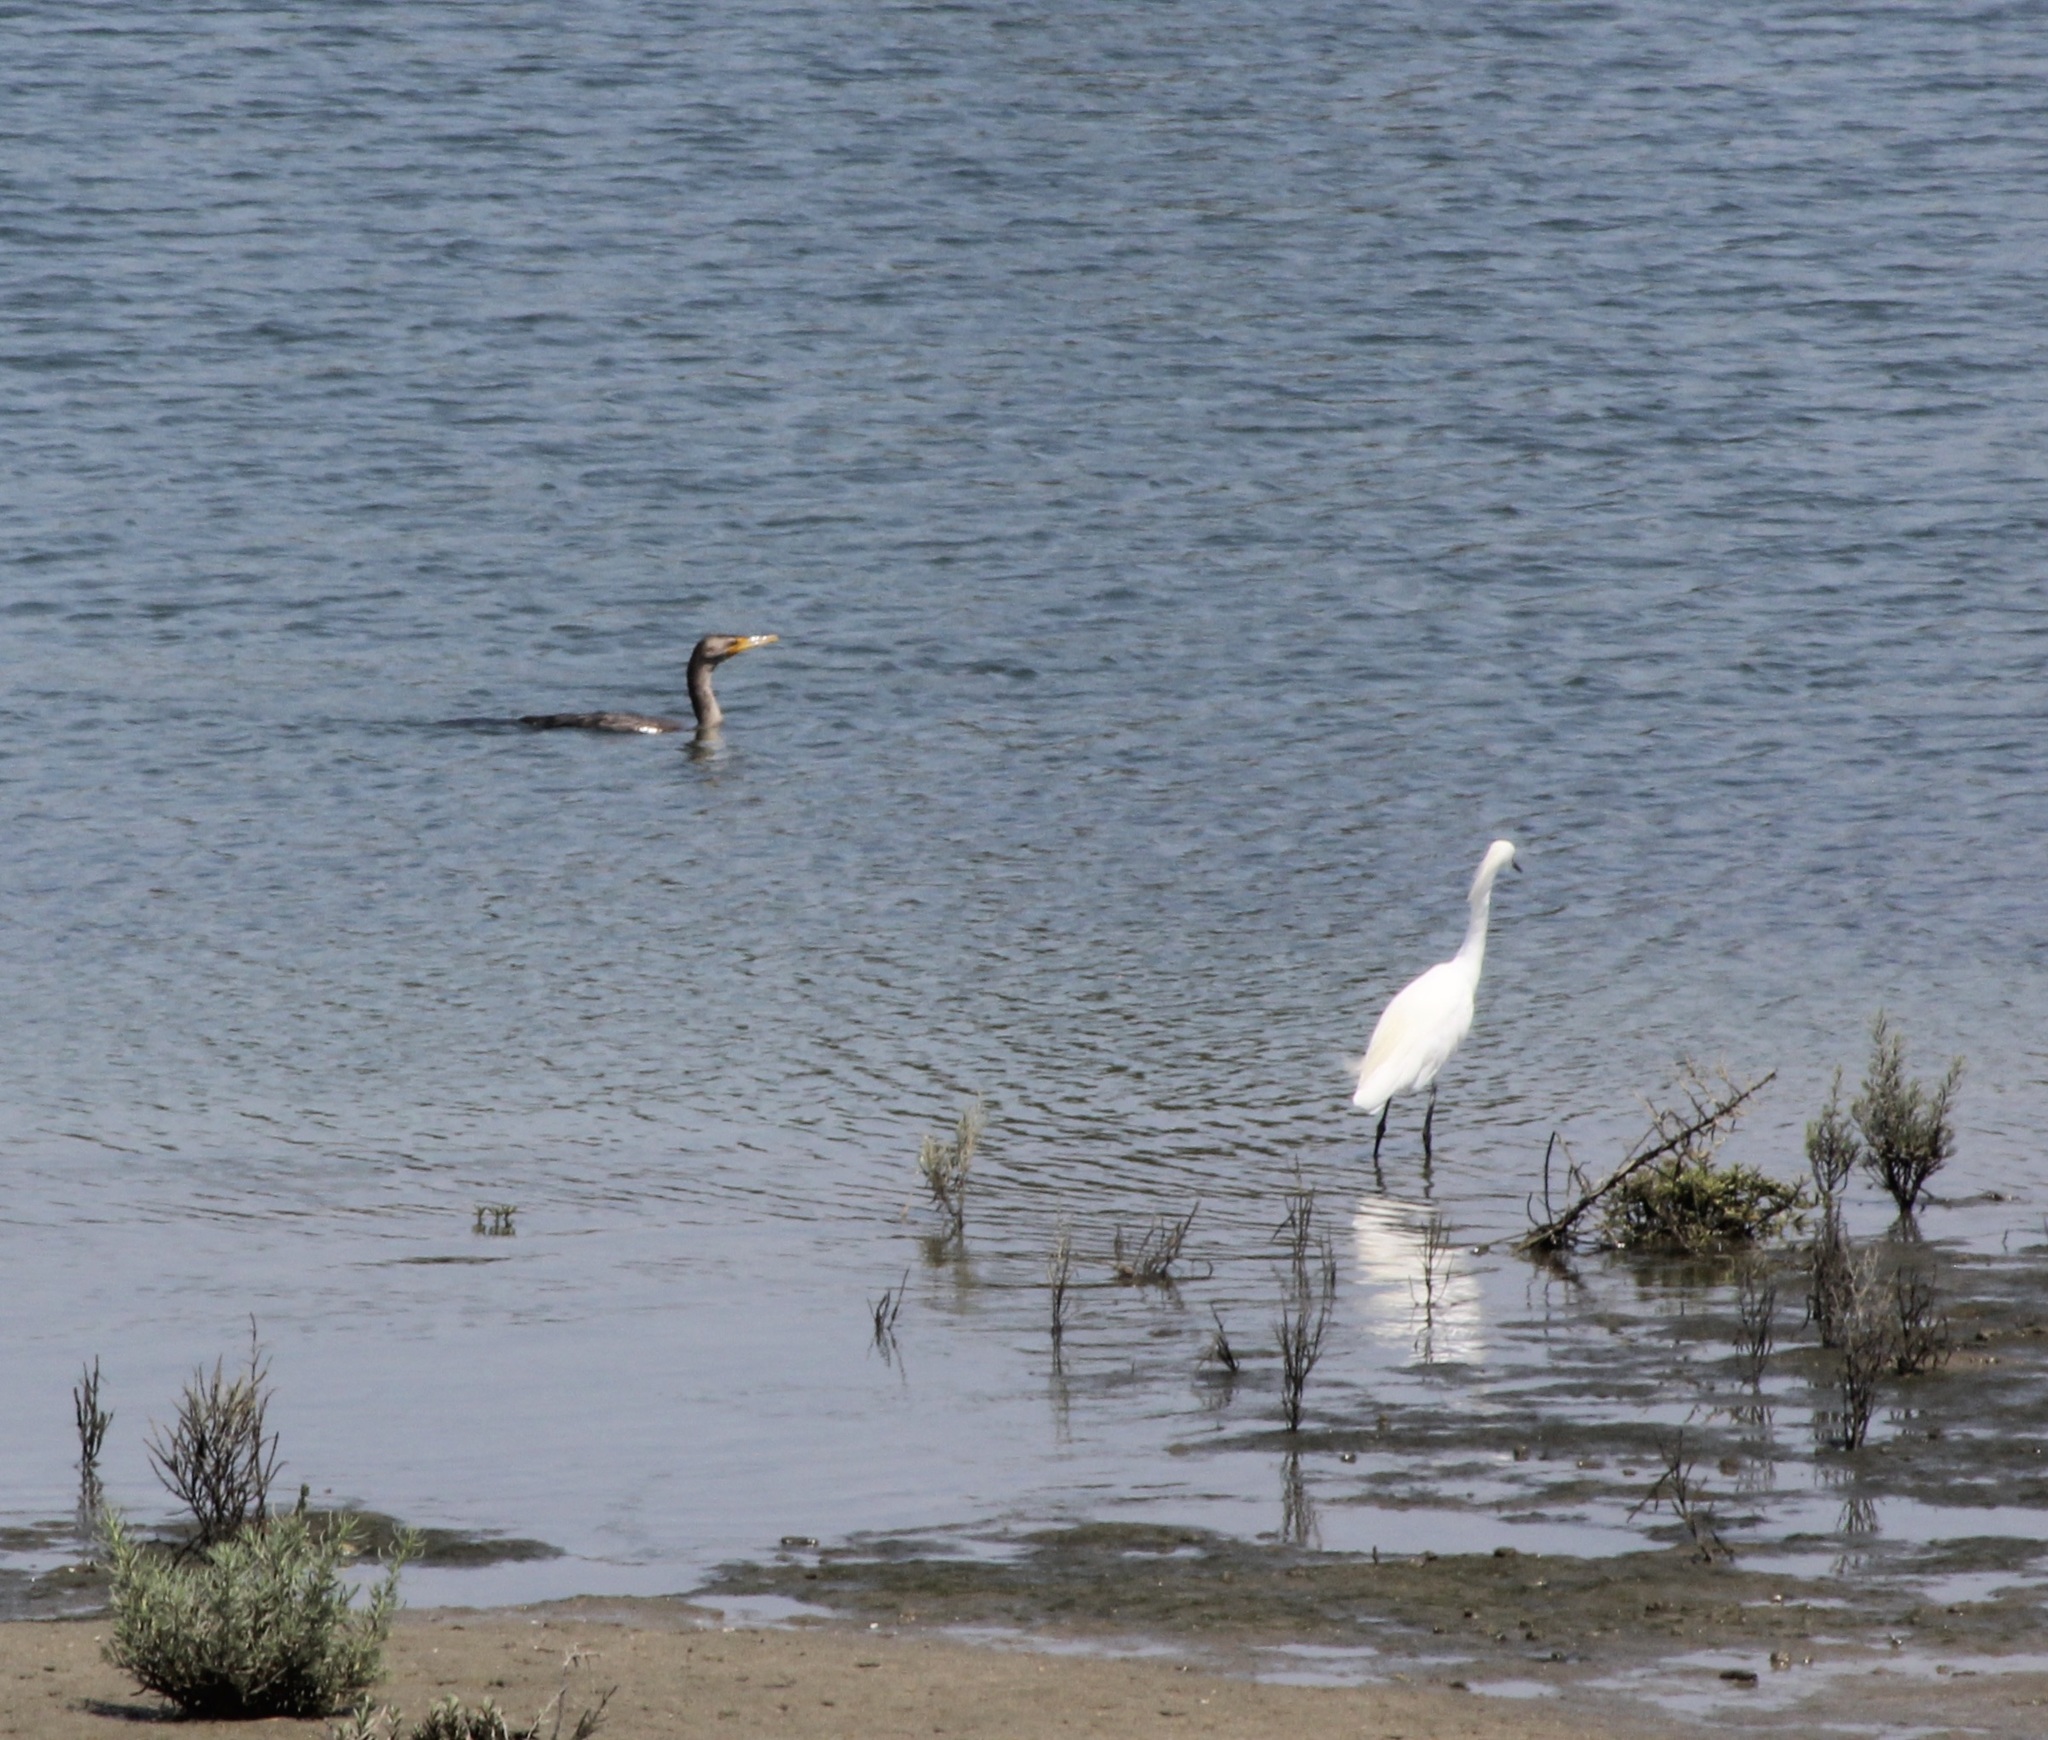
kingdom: Animalia
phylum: Chordata
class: Aves
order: Suliformes
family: Phalacrocoracidae
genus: Phalacrocorax
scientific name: Phalacrocorax auritus
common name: Double-crested cormorant
